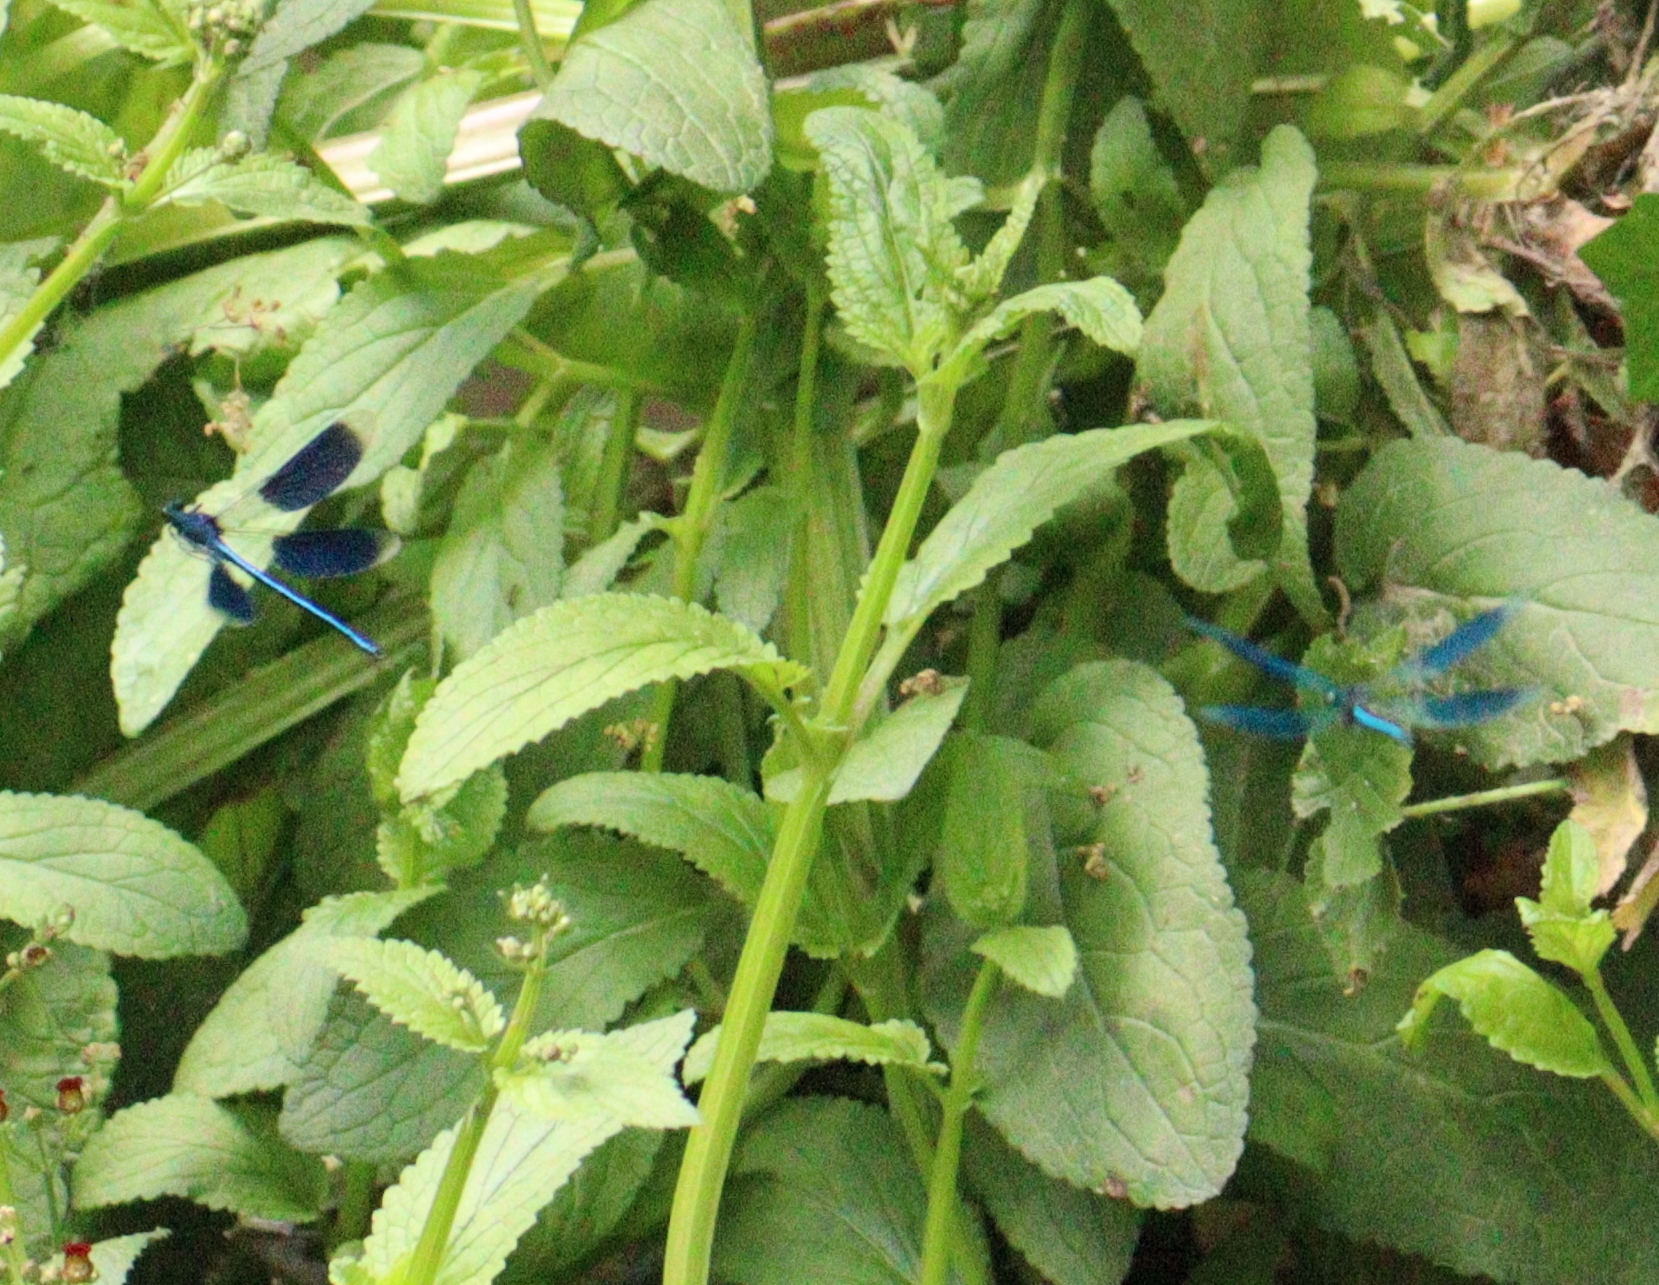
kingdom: Animalia
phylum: Arthropoda
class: Insecta
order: Odonata
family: Calopterygidae
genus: Calopteryx
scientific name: Calopteryx splendens
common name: Banded demoiselle
